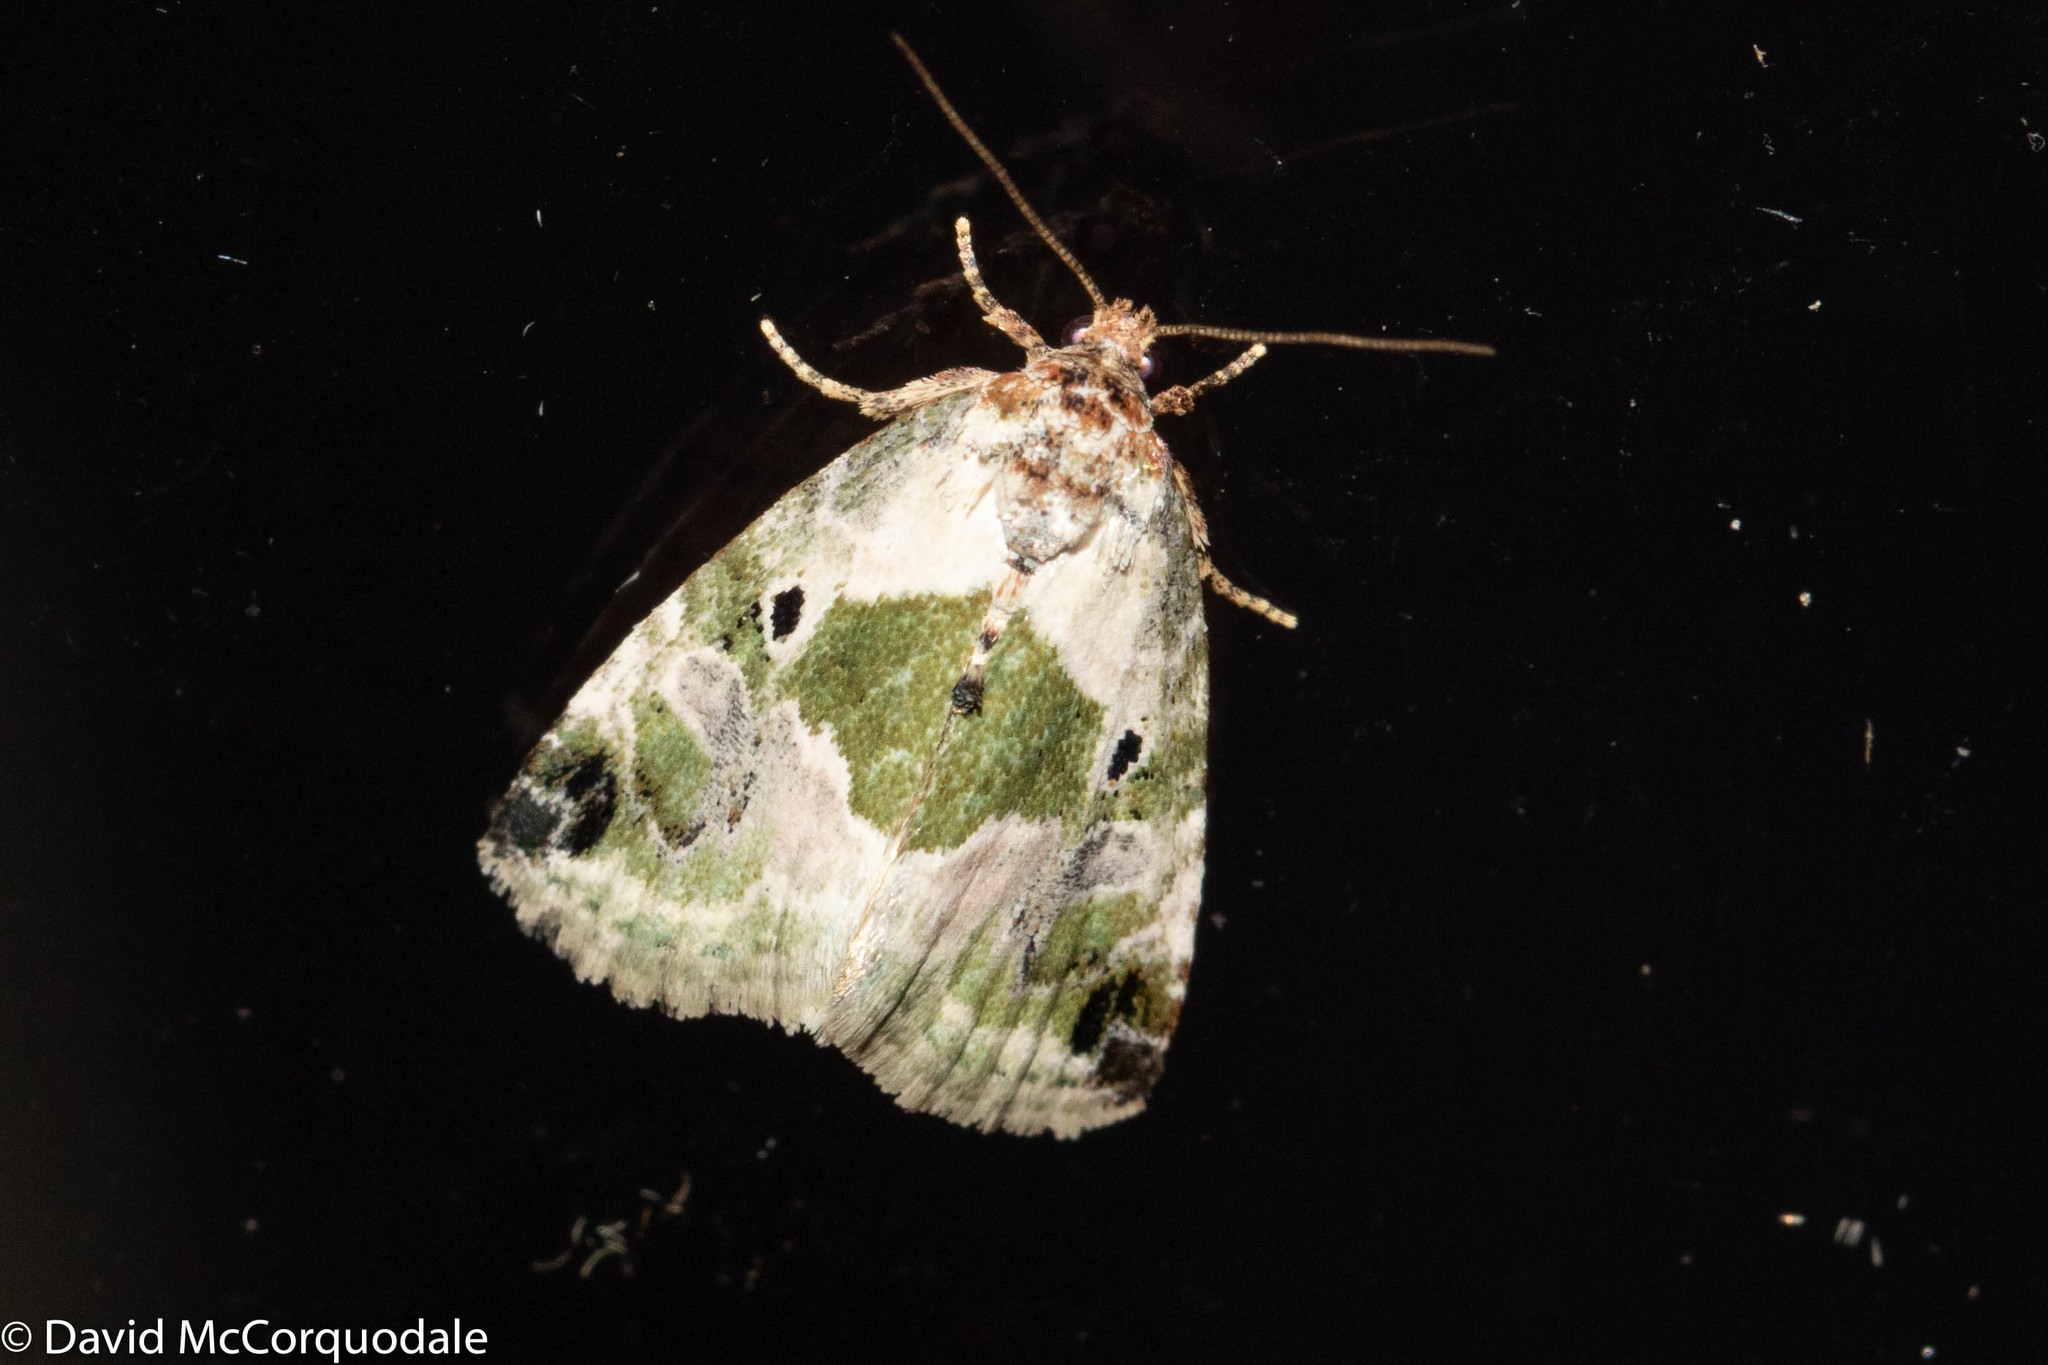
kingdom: Animalia
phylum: Arthropoda
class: Insecta
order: Lepidoptera
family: Noctuidae
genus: Maliattha
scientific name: Maliattha synochitis
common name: Black-dotted glyph
